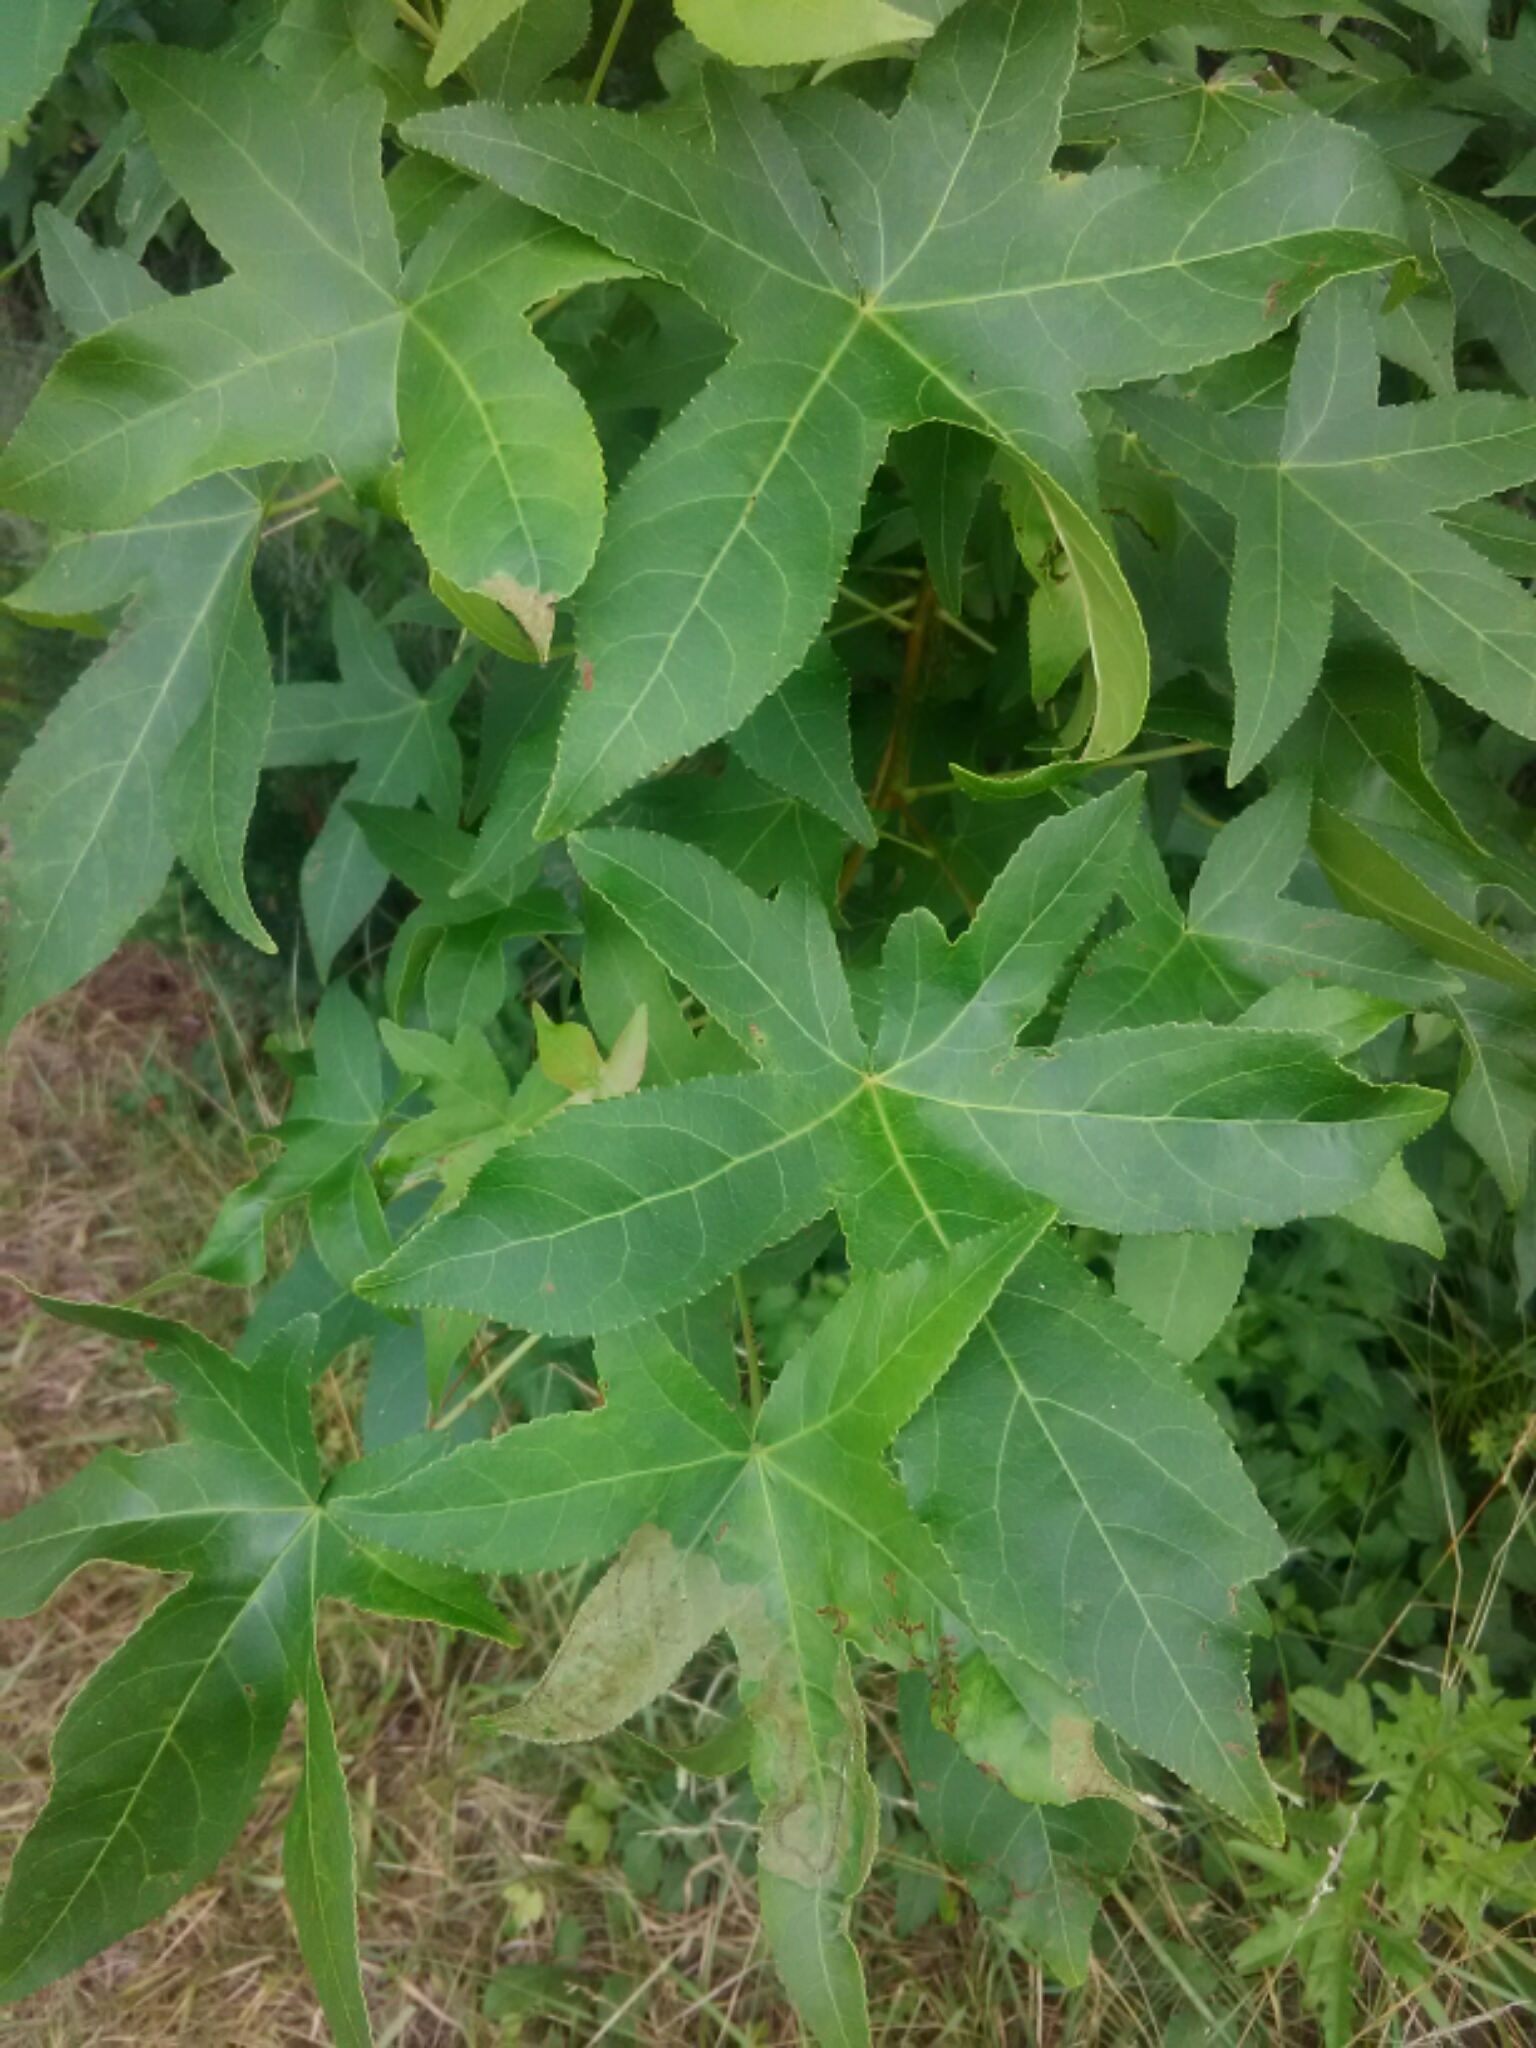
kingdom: Plantae
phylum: Tracheophyta
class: Magnoliopsida
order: Saxifragales
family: Altingiaceae
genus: Liquidambar
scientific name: Liquidambar styraciflua
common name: Sweet gum
